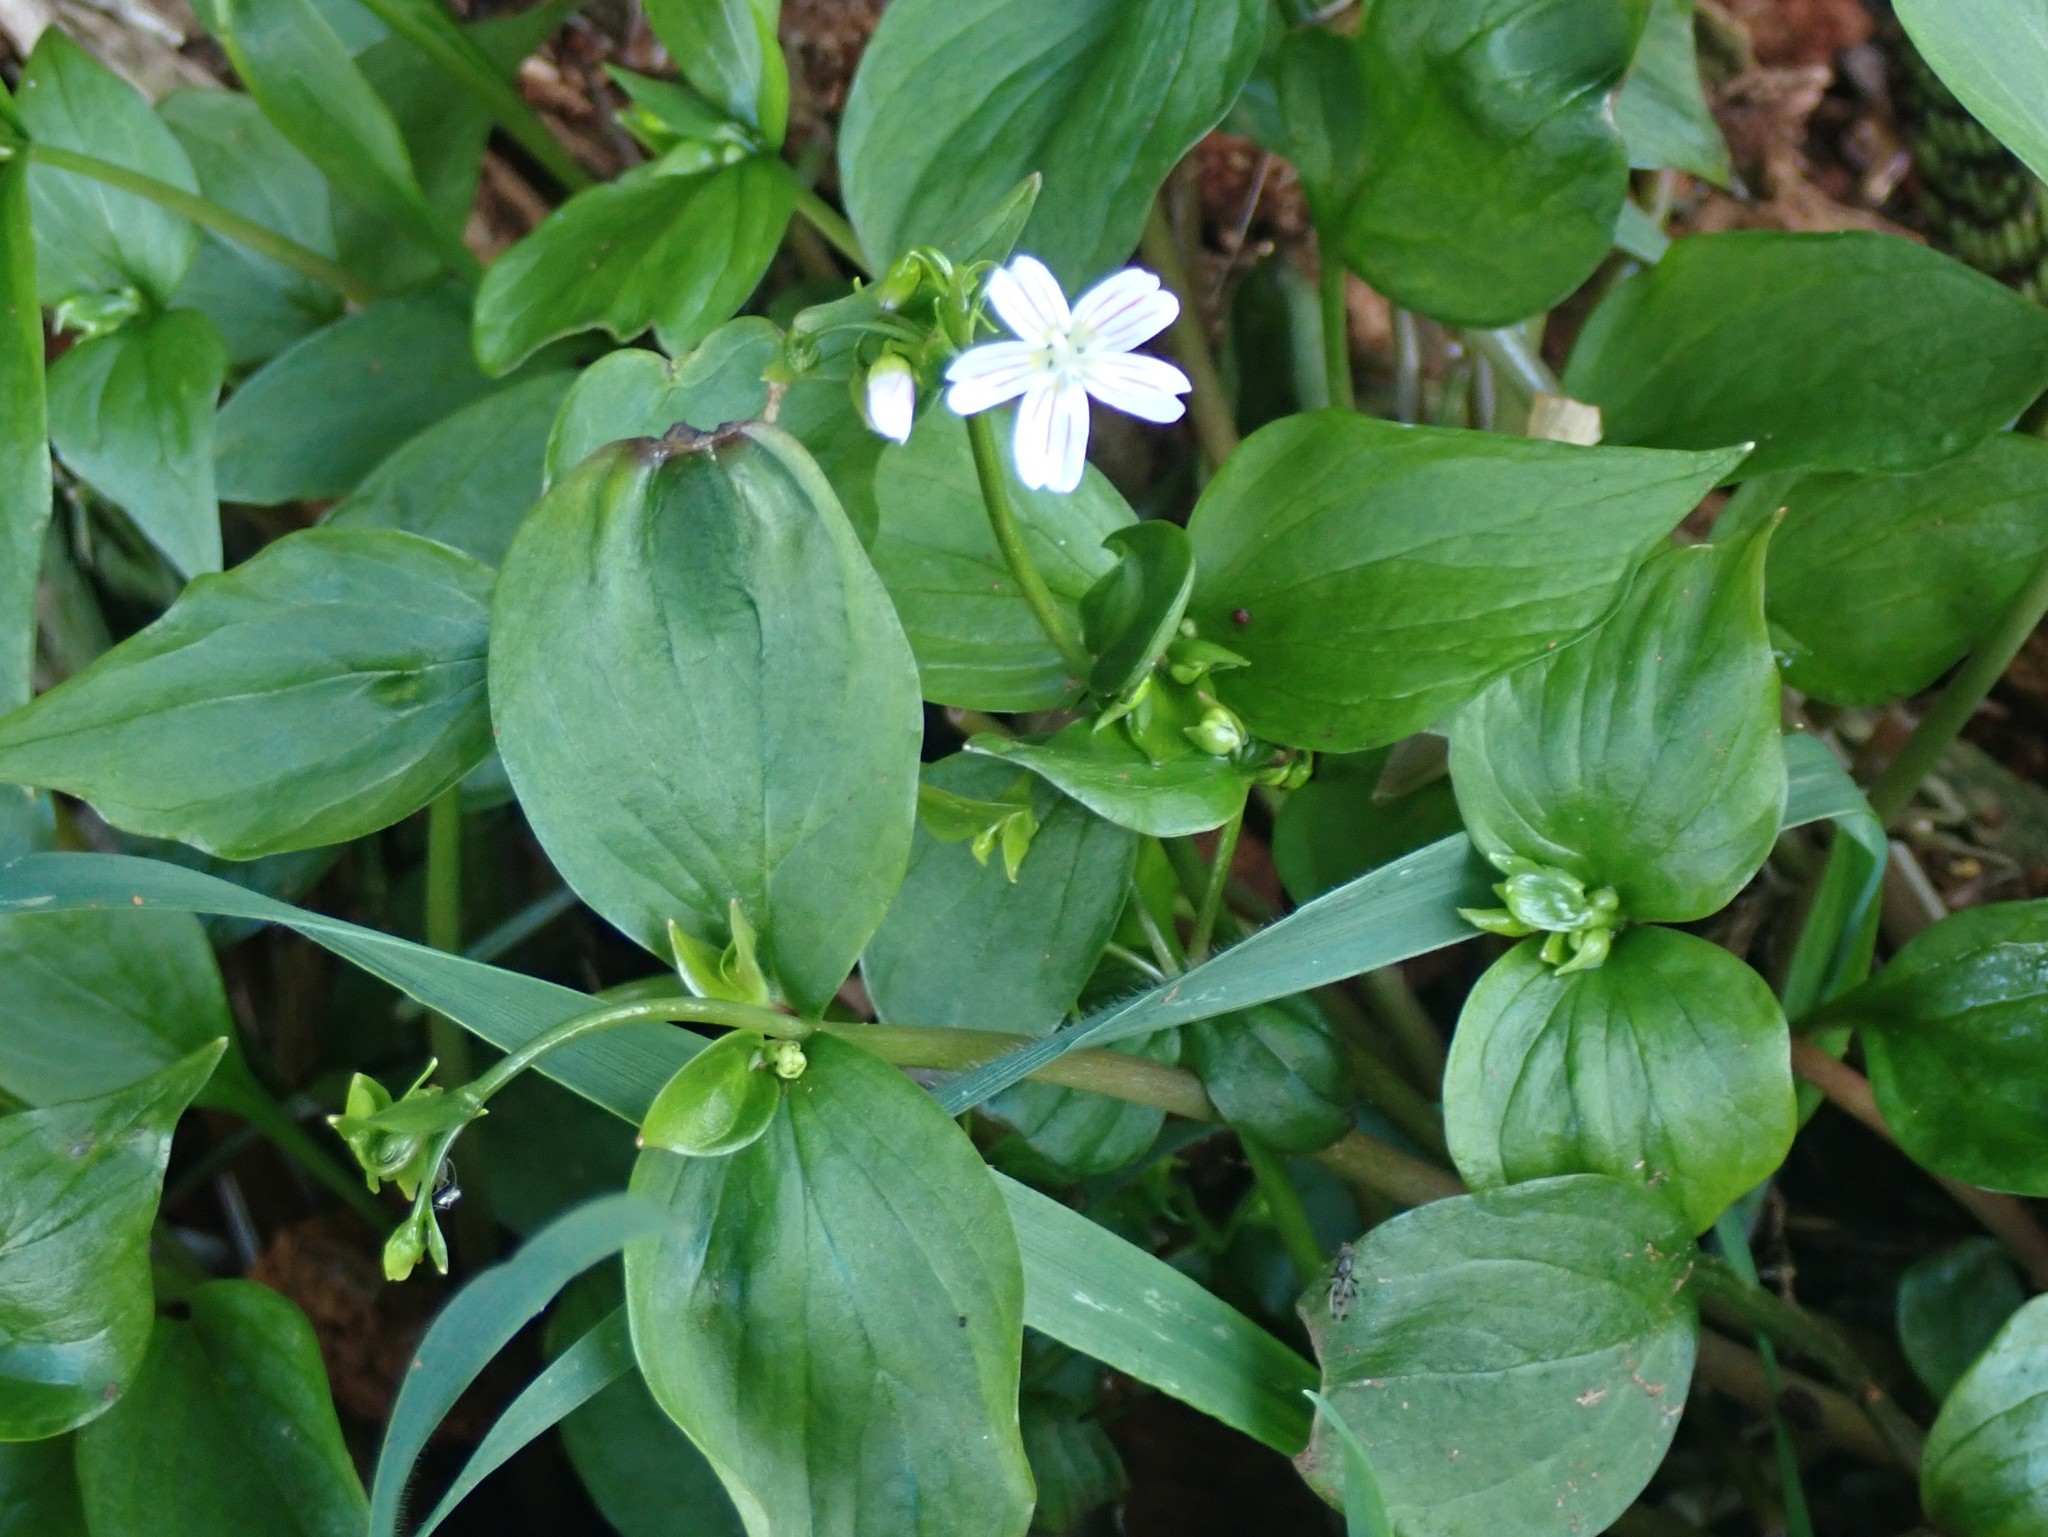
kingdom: Plantae
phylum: Tracheophyta
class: Magnoliopsida
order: Caryophyllales
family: Montiaceae
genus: Claytonia
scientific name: Claytonia sibirica
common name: Pink purslane
